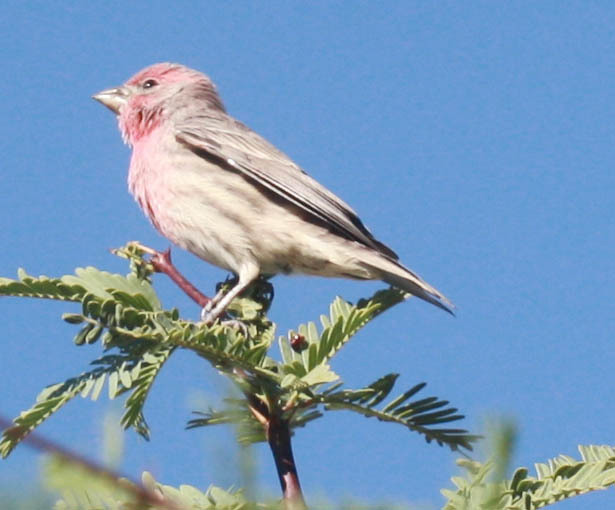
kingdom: Animalia
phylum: Chordata
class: Aves
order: Passeriformes
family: Fringillidae
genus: Haemorhous
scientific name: Haemorhous mexicanus
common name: House finch
